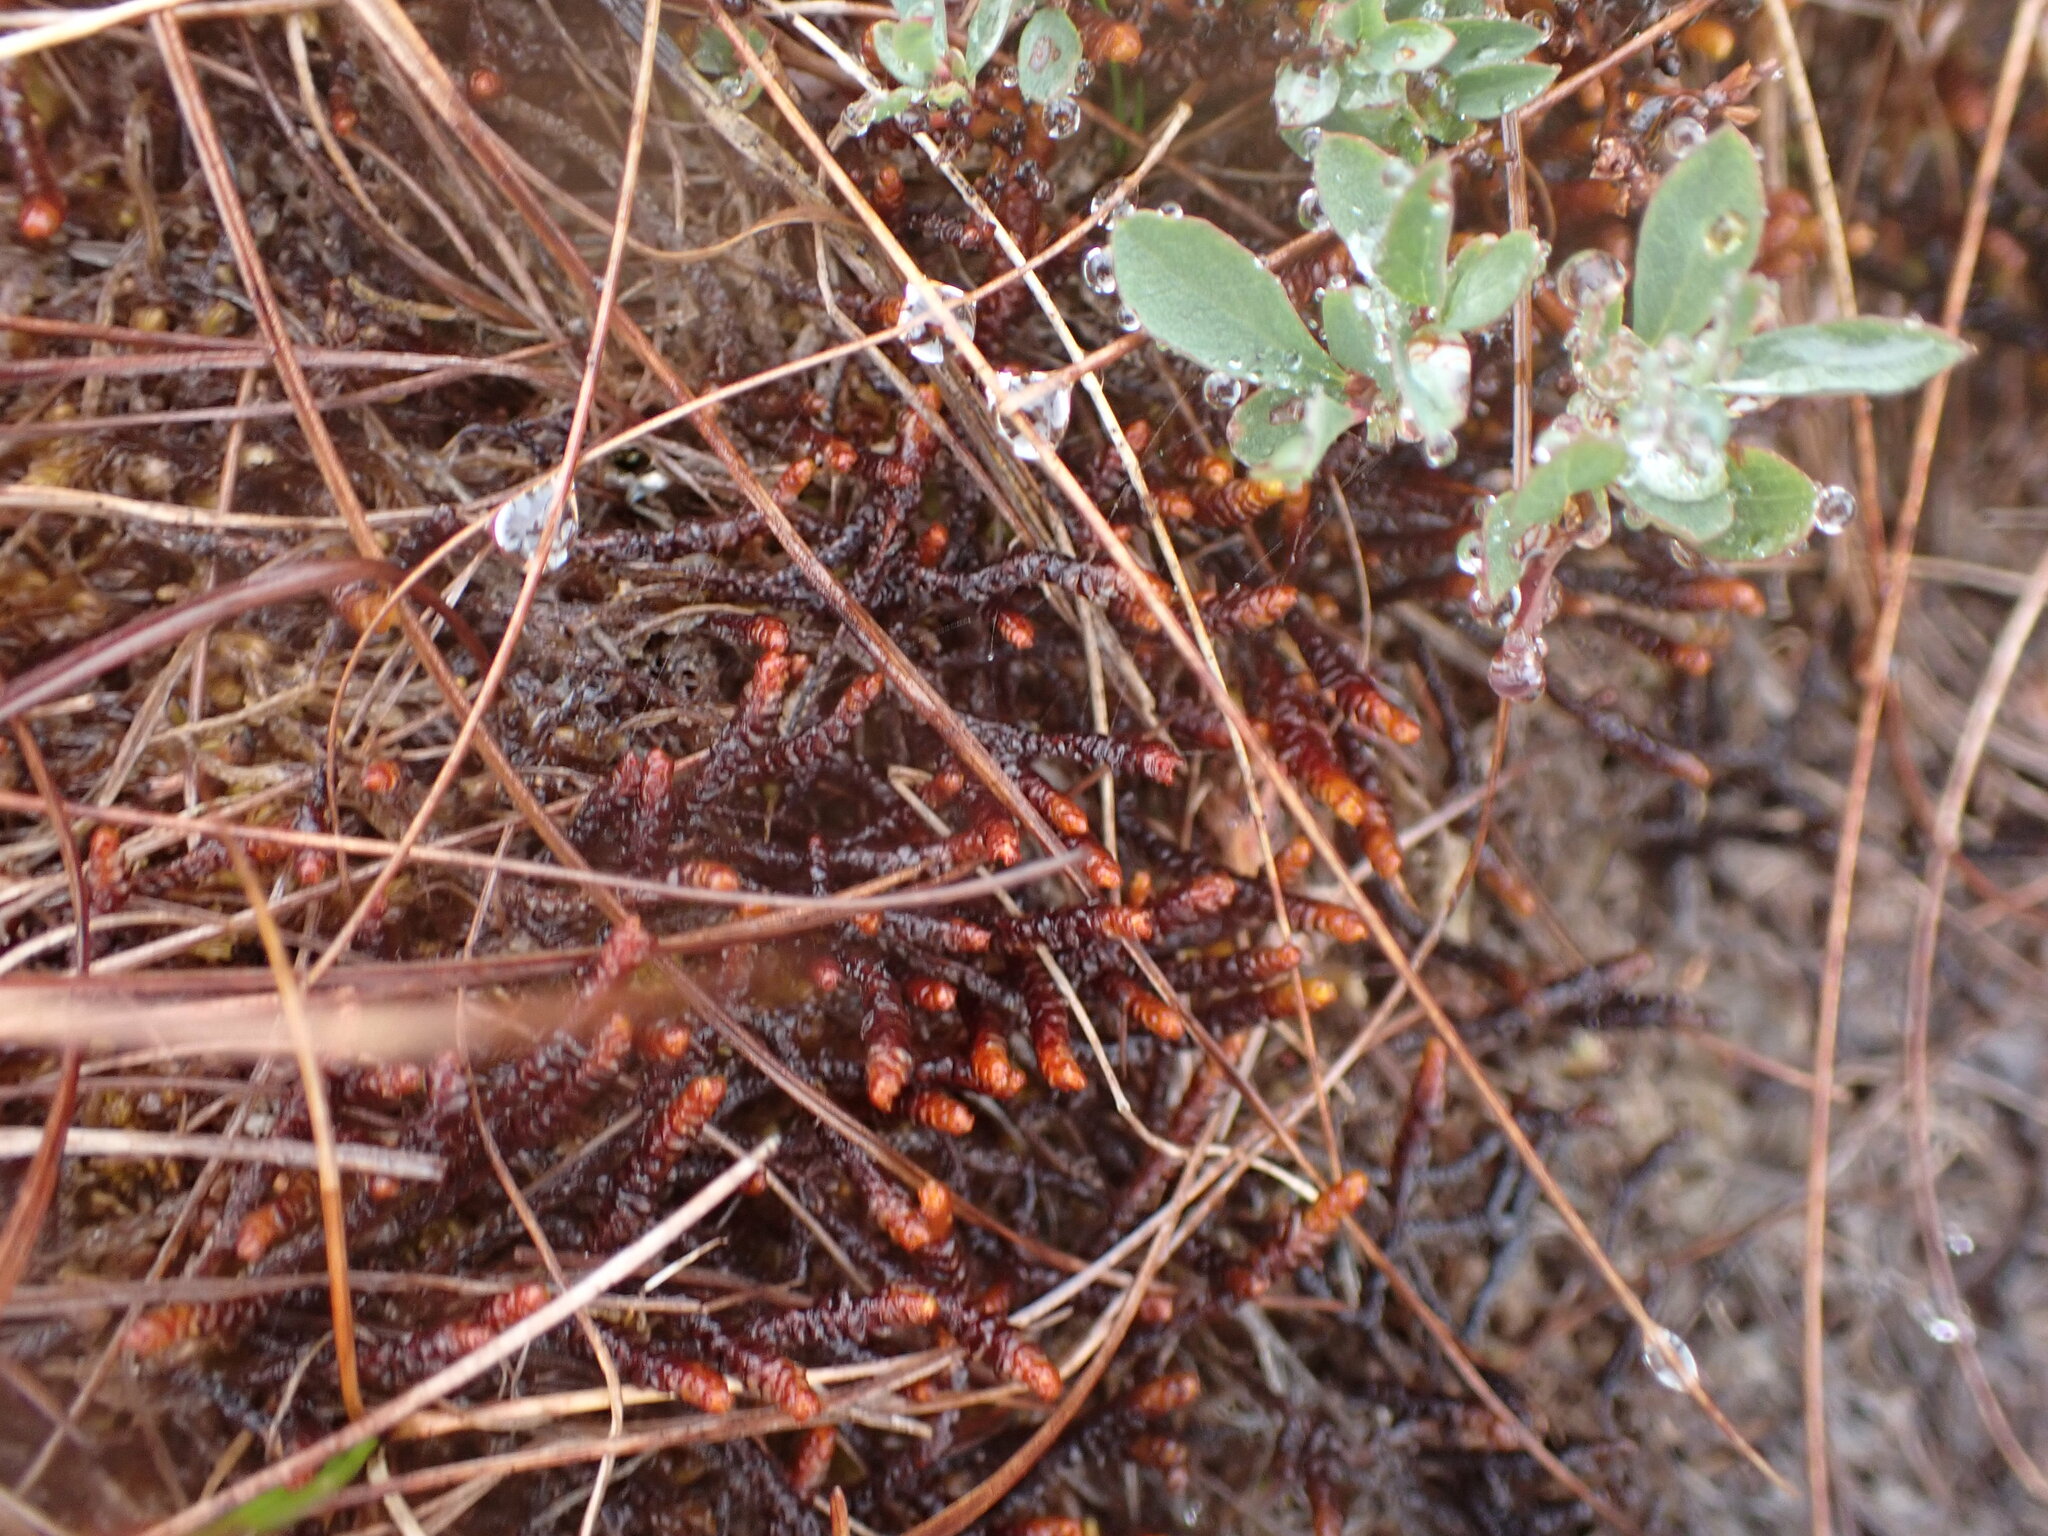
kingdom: Plantae
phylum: Marchantiophyta
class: Jungermanniopsida
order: Pleuroziales
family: Pleuroziaceae
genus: Pleurozia
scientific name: Pleurozia purpurea
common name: Purple spoonwort
